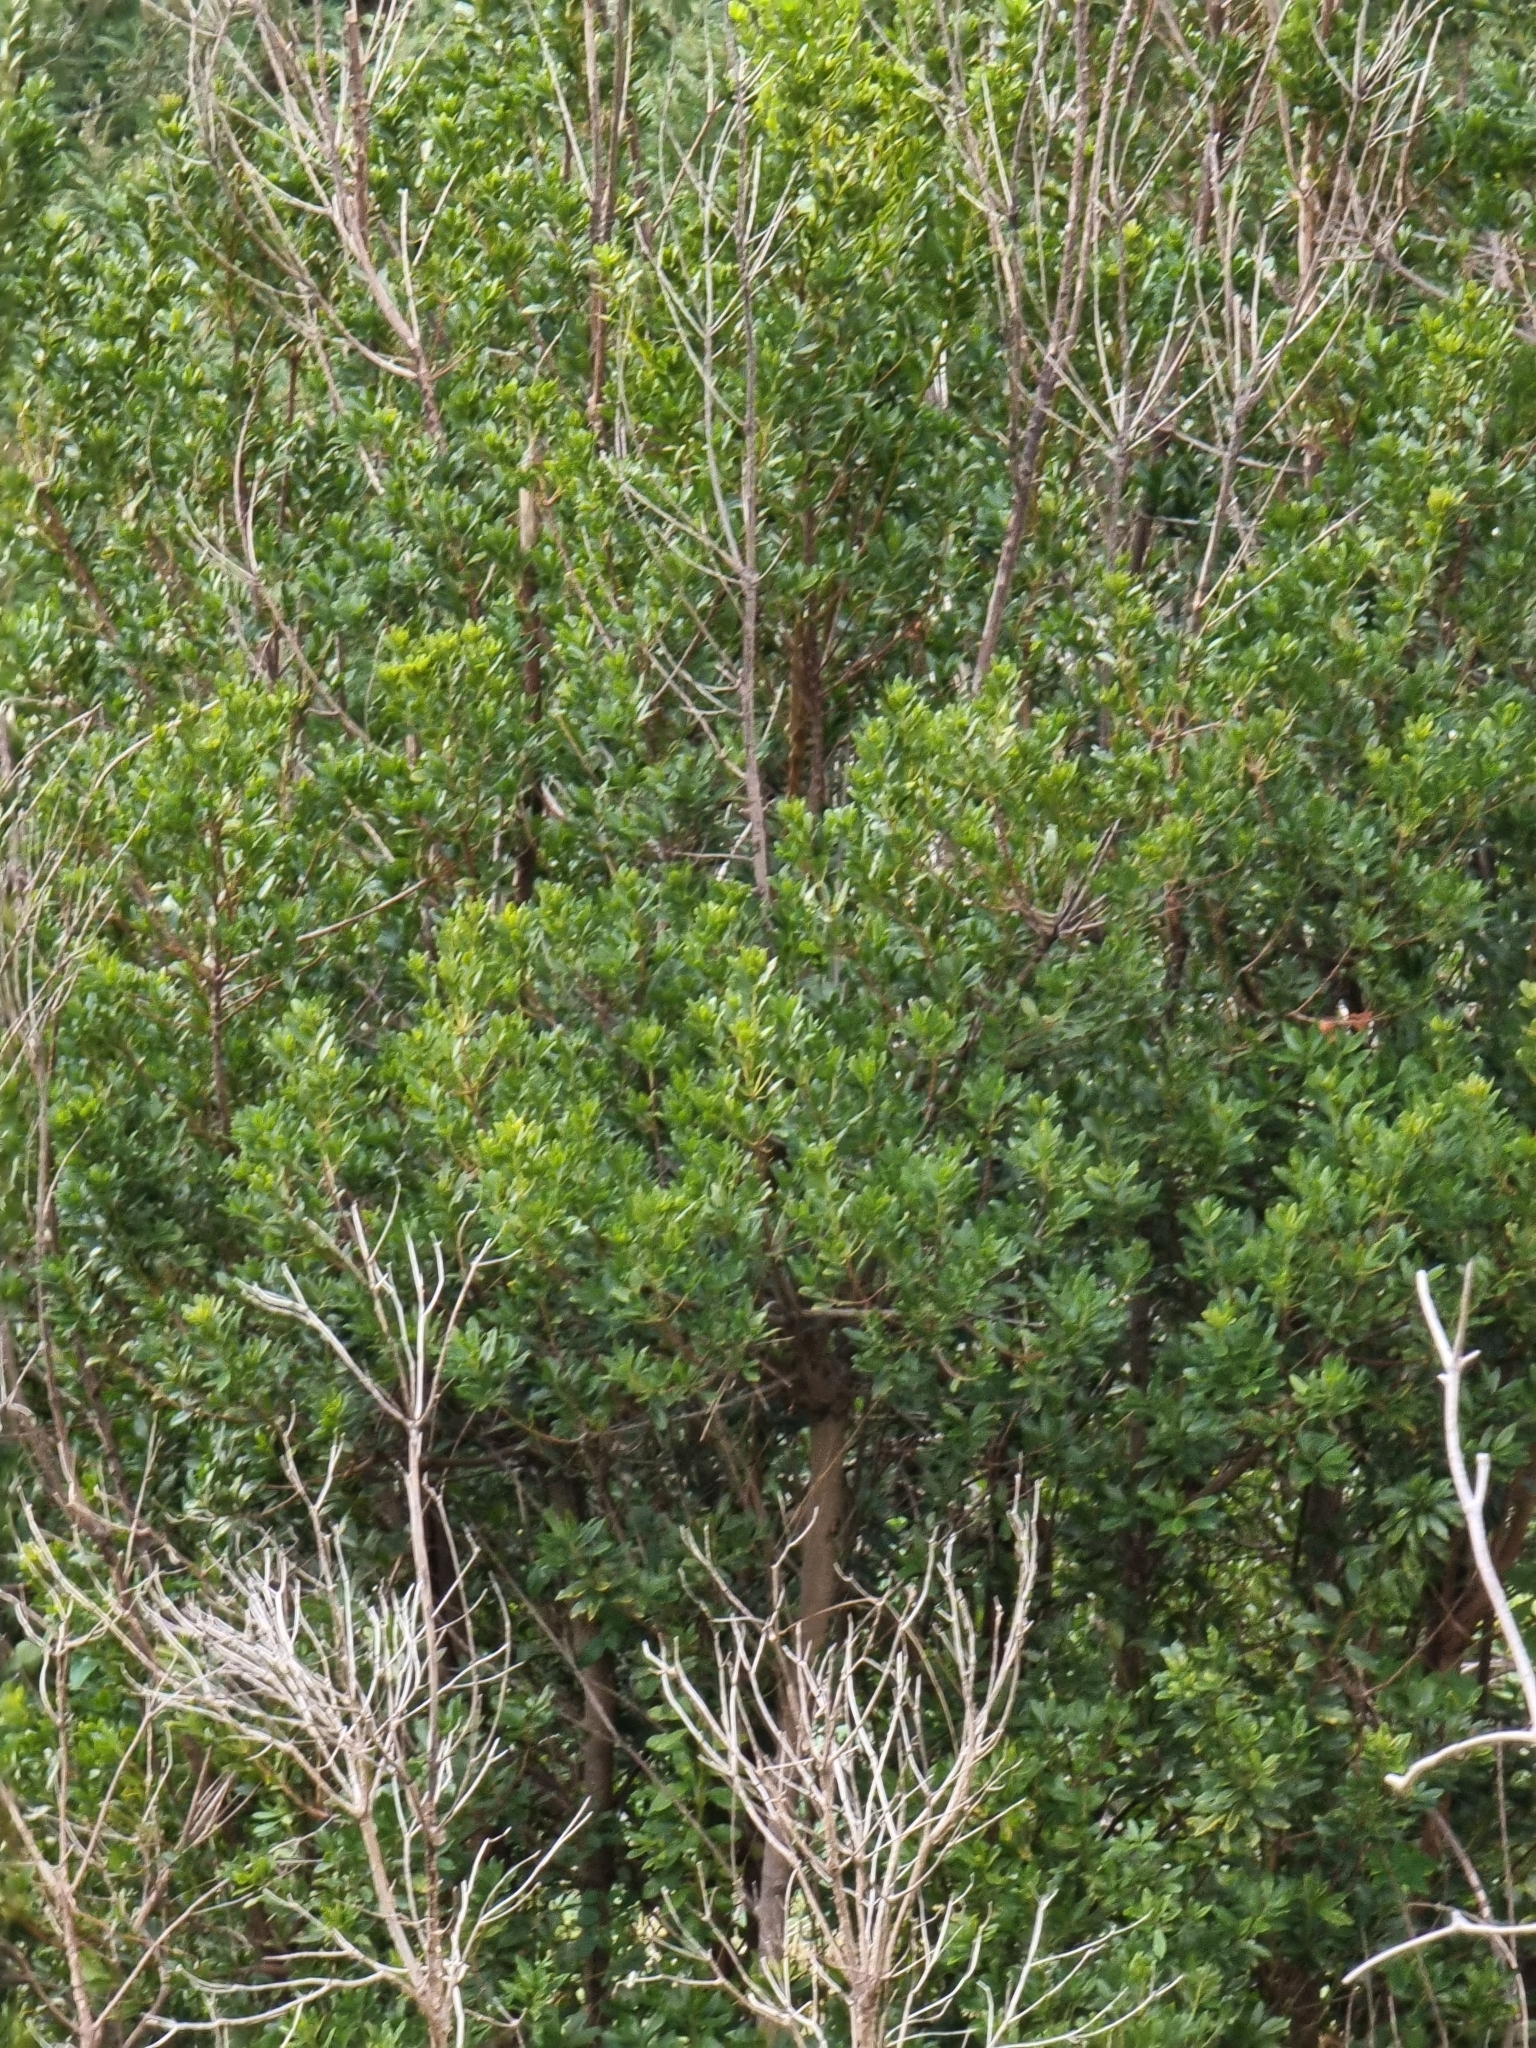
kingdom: Plantae
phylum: Tracheophyta
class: Magnoliopsida
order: Fagales
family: Myricaceae
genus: Morella
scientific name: Morella faya
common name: Firetree
